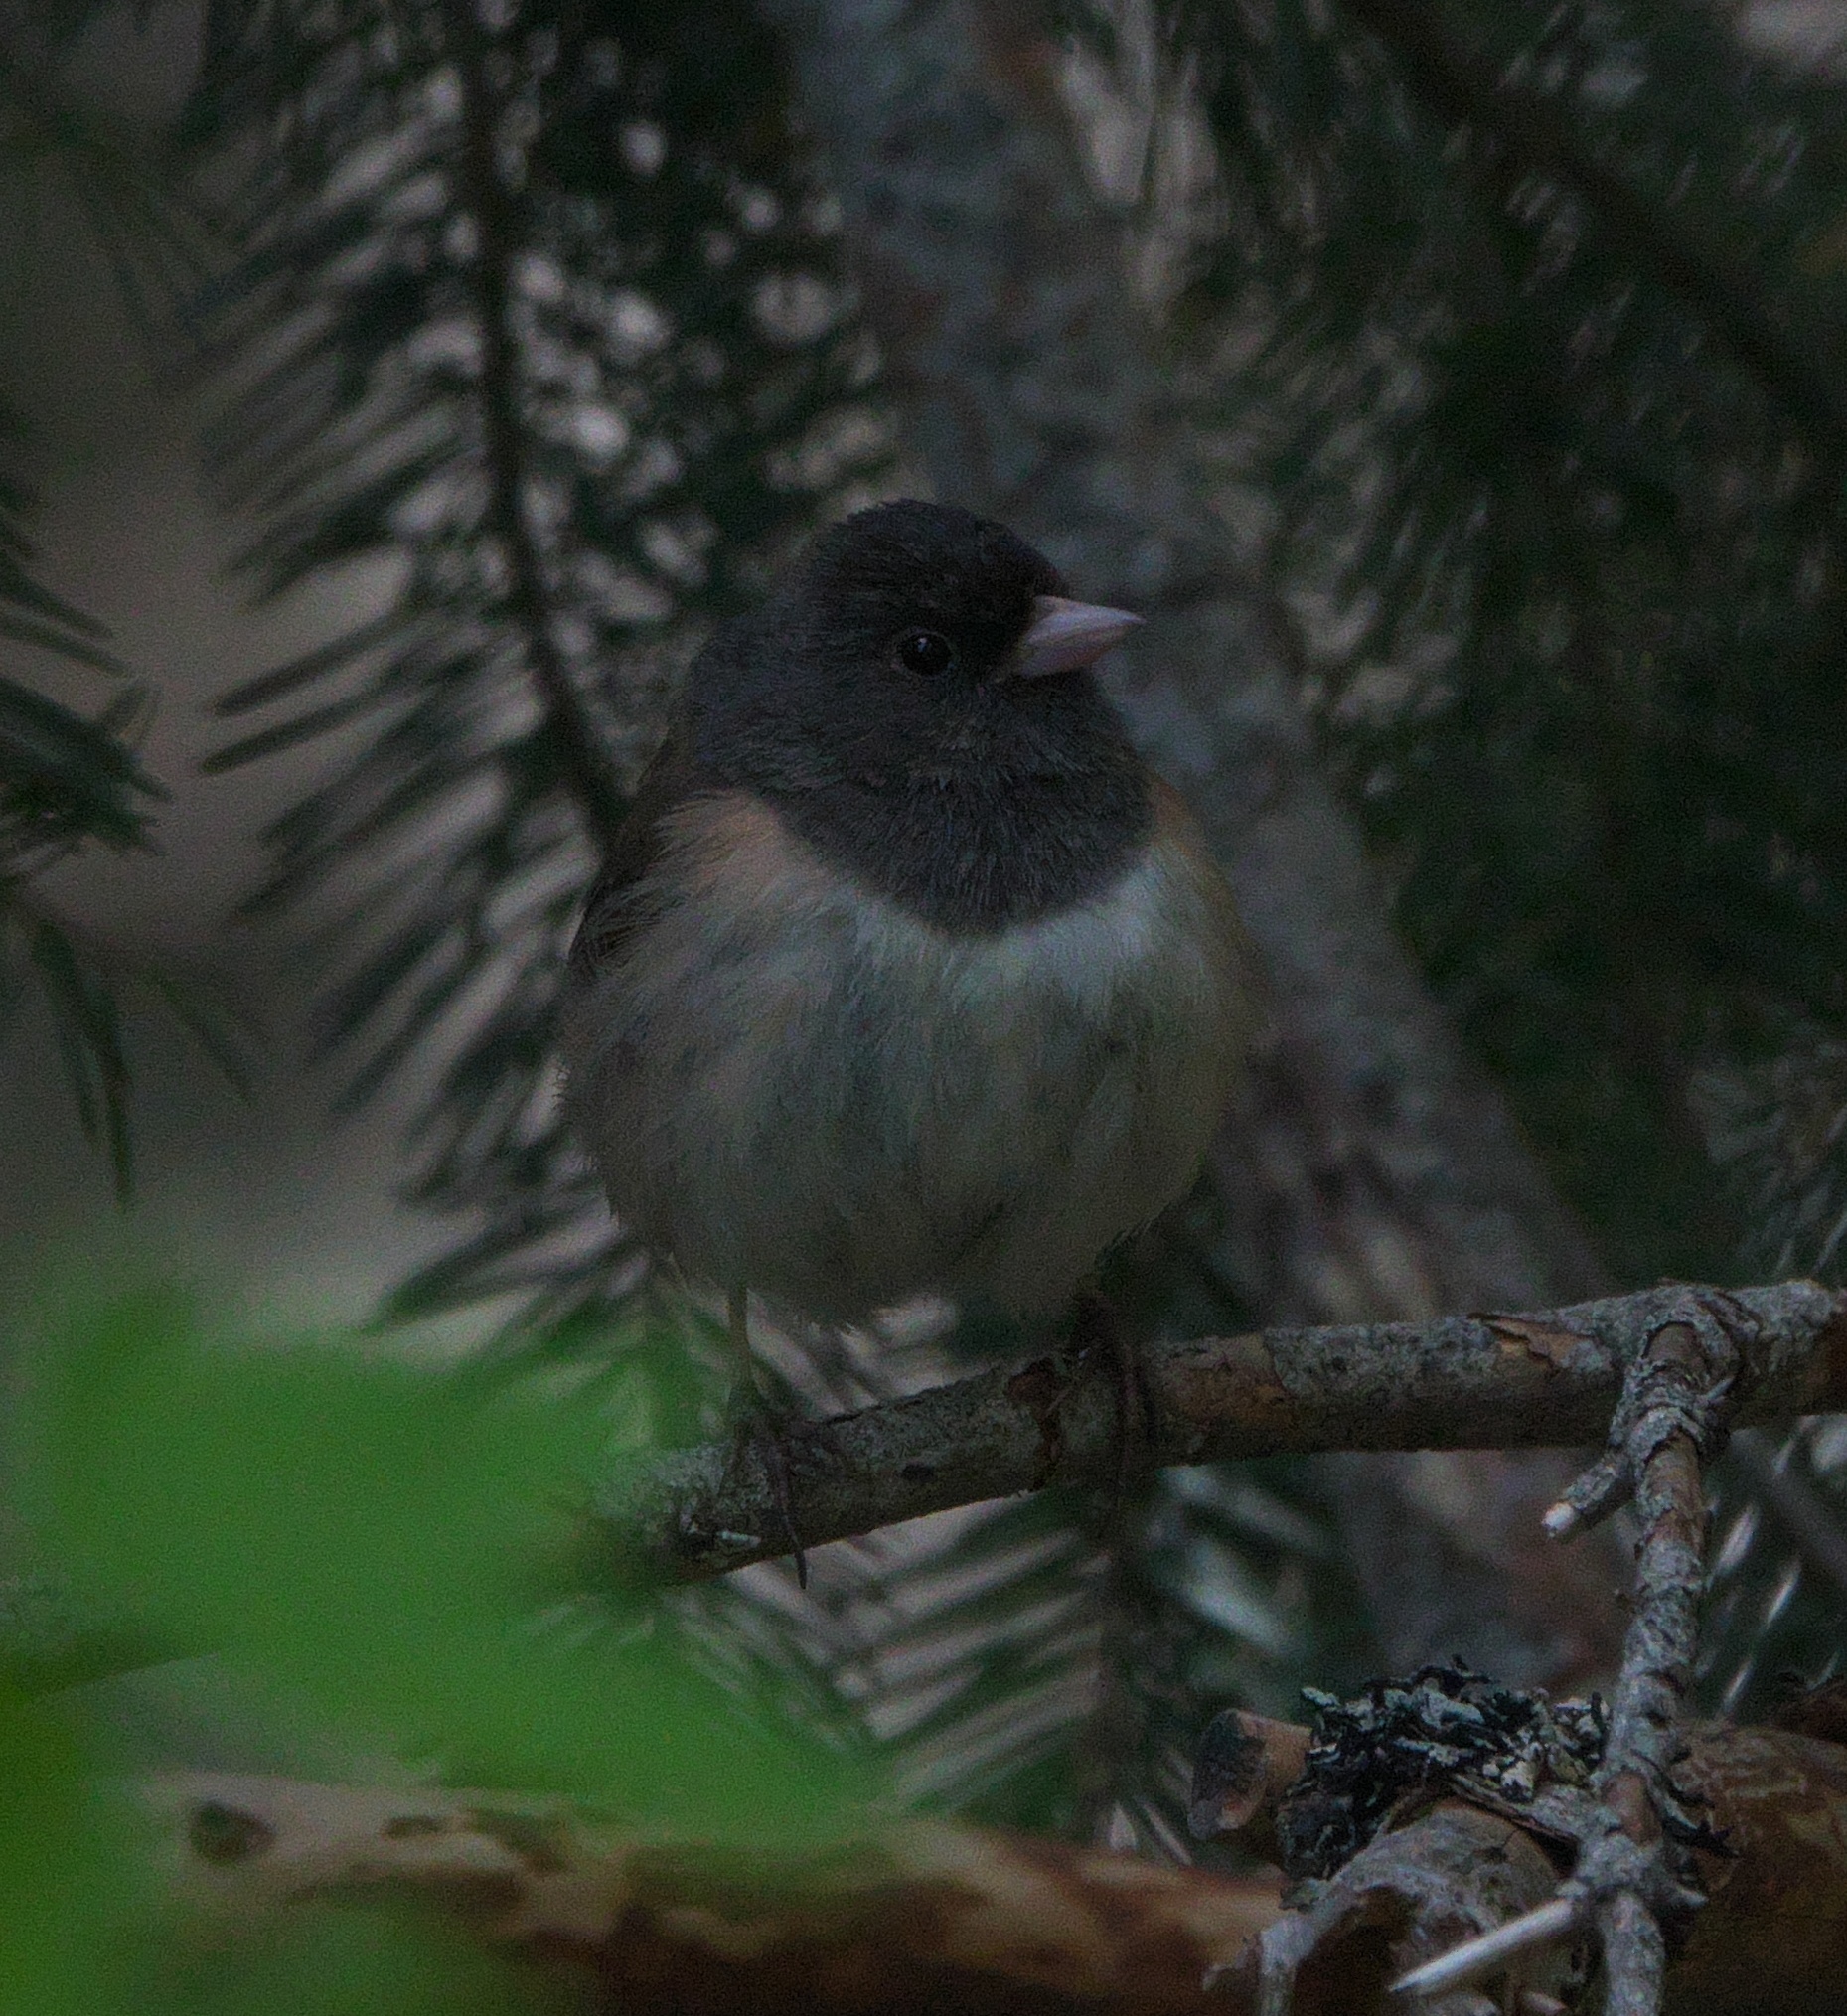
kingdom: Animalia
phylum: Chordata
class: Aves
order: Passeriformes
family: Passerellidae
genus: Junco
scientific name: Junco hyemalis
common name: Dark-eyed junco
